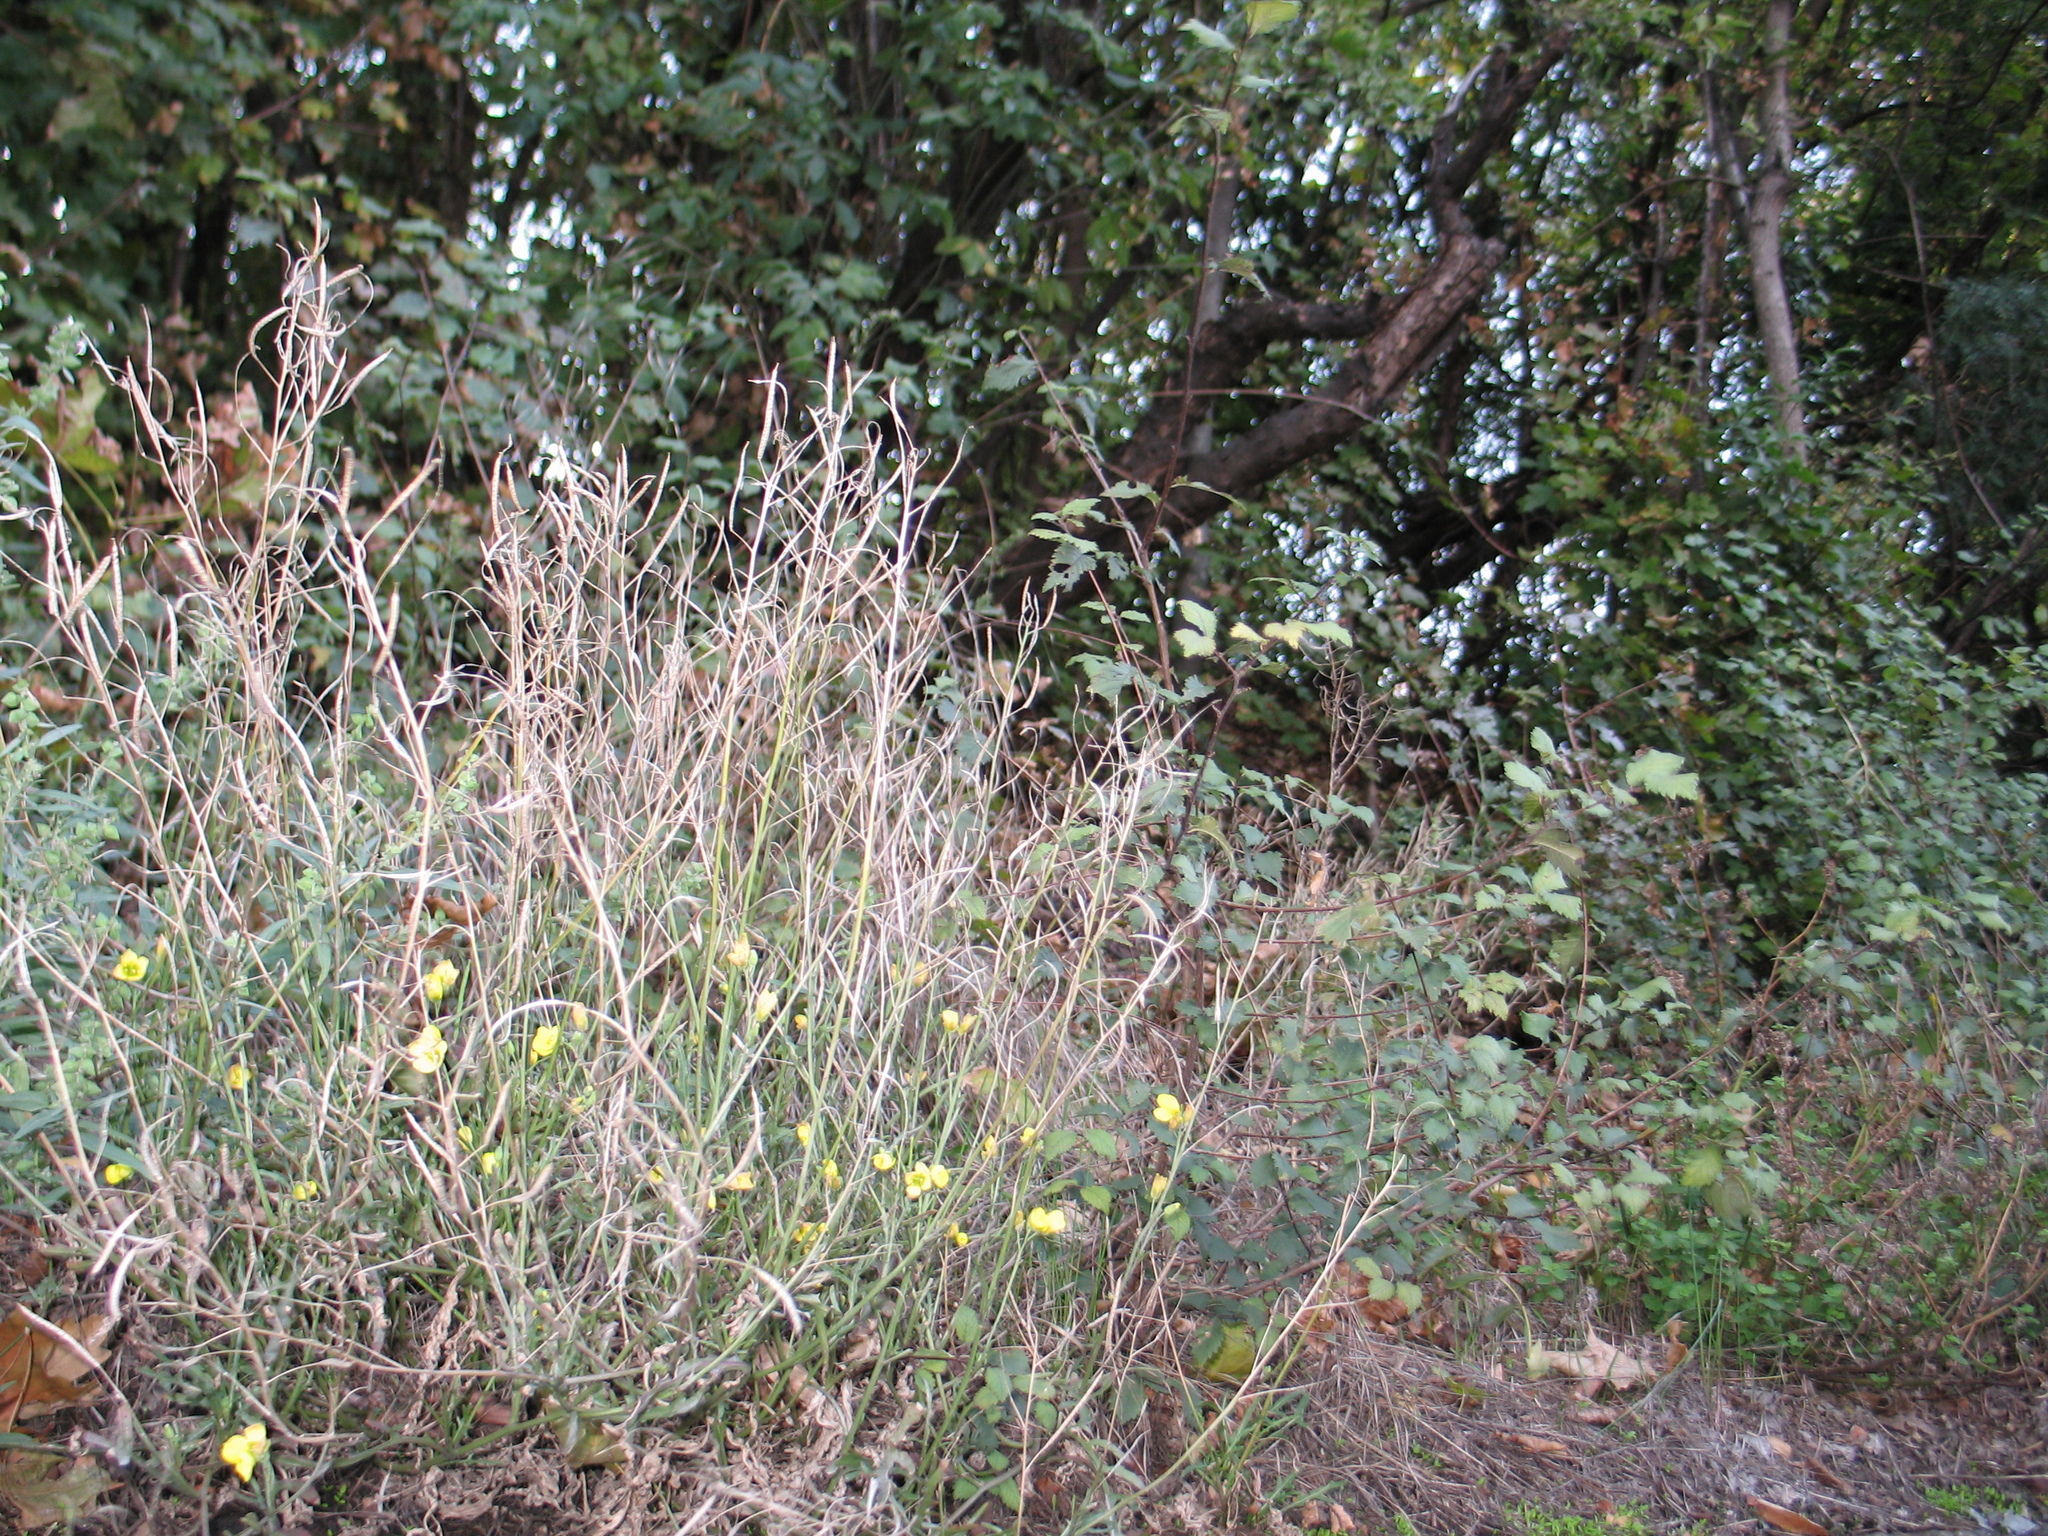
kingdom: Plantae
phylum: Tracheophyta
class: Magnoliopsida
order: Brassicales
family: Brassicaceae
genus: Diplotaxis
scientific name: Diplotaxis tenuifolia
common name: Perennial wall-rocket
